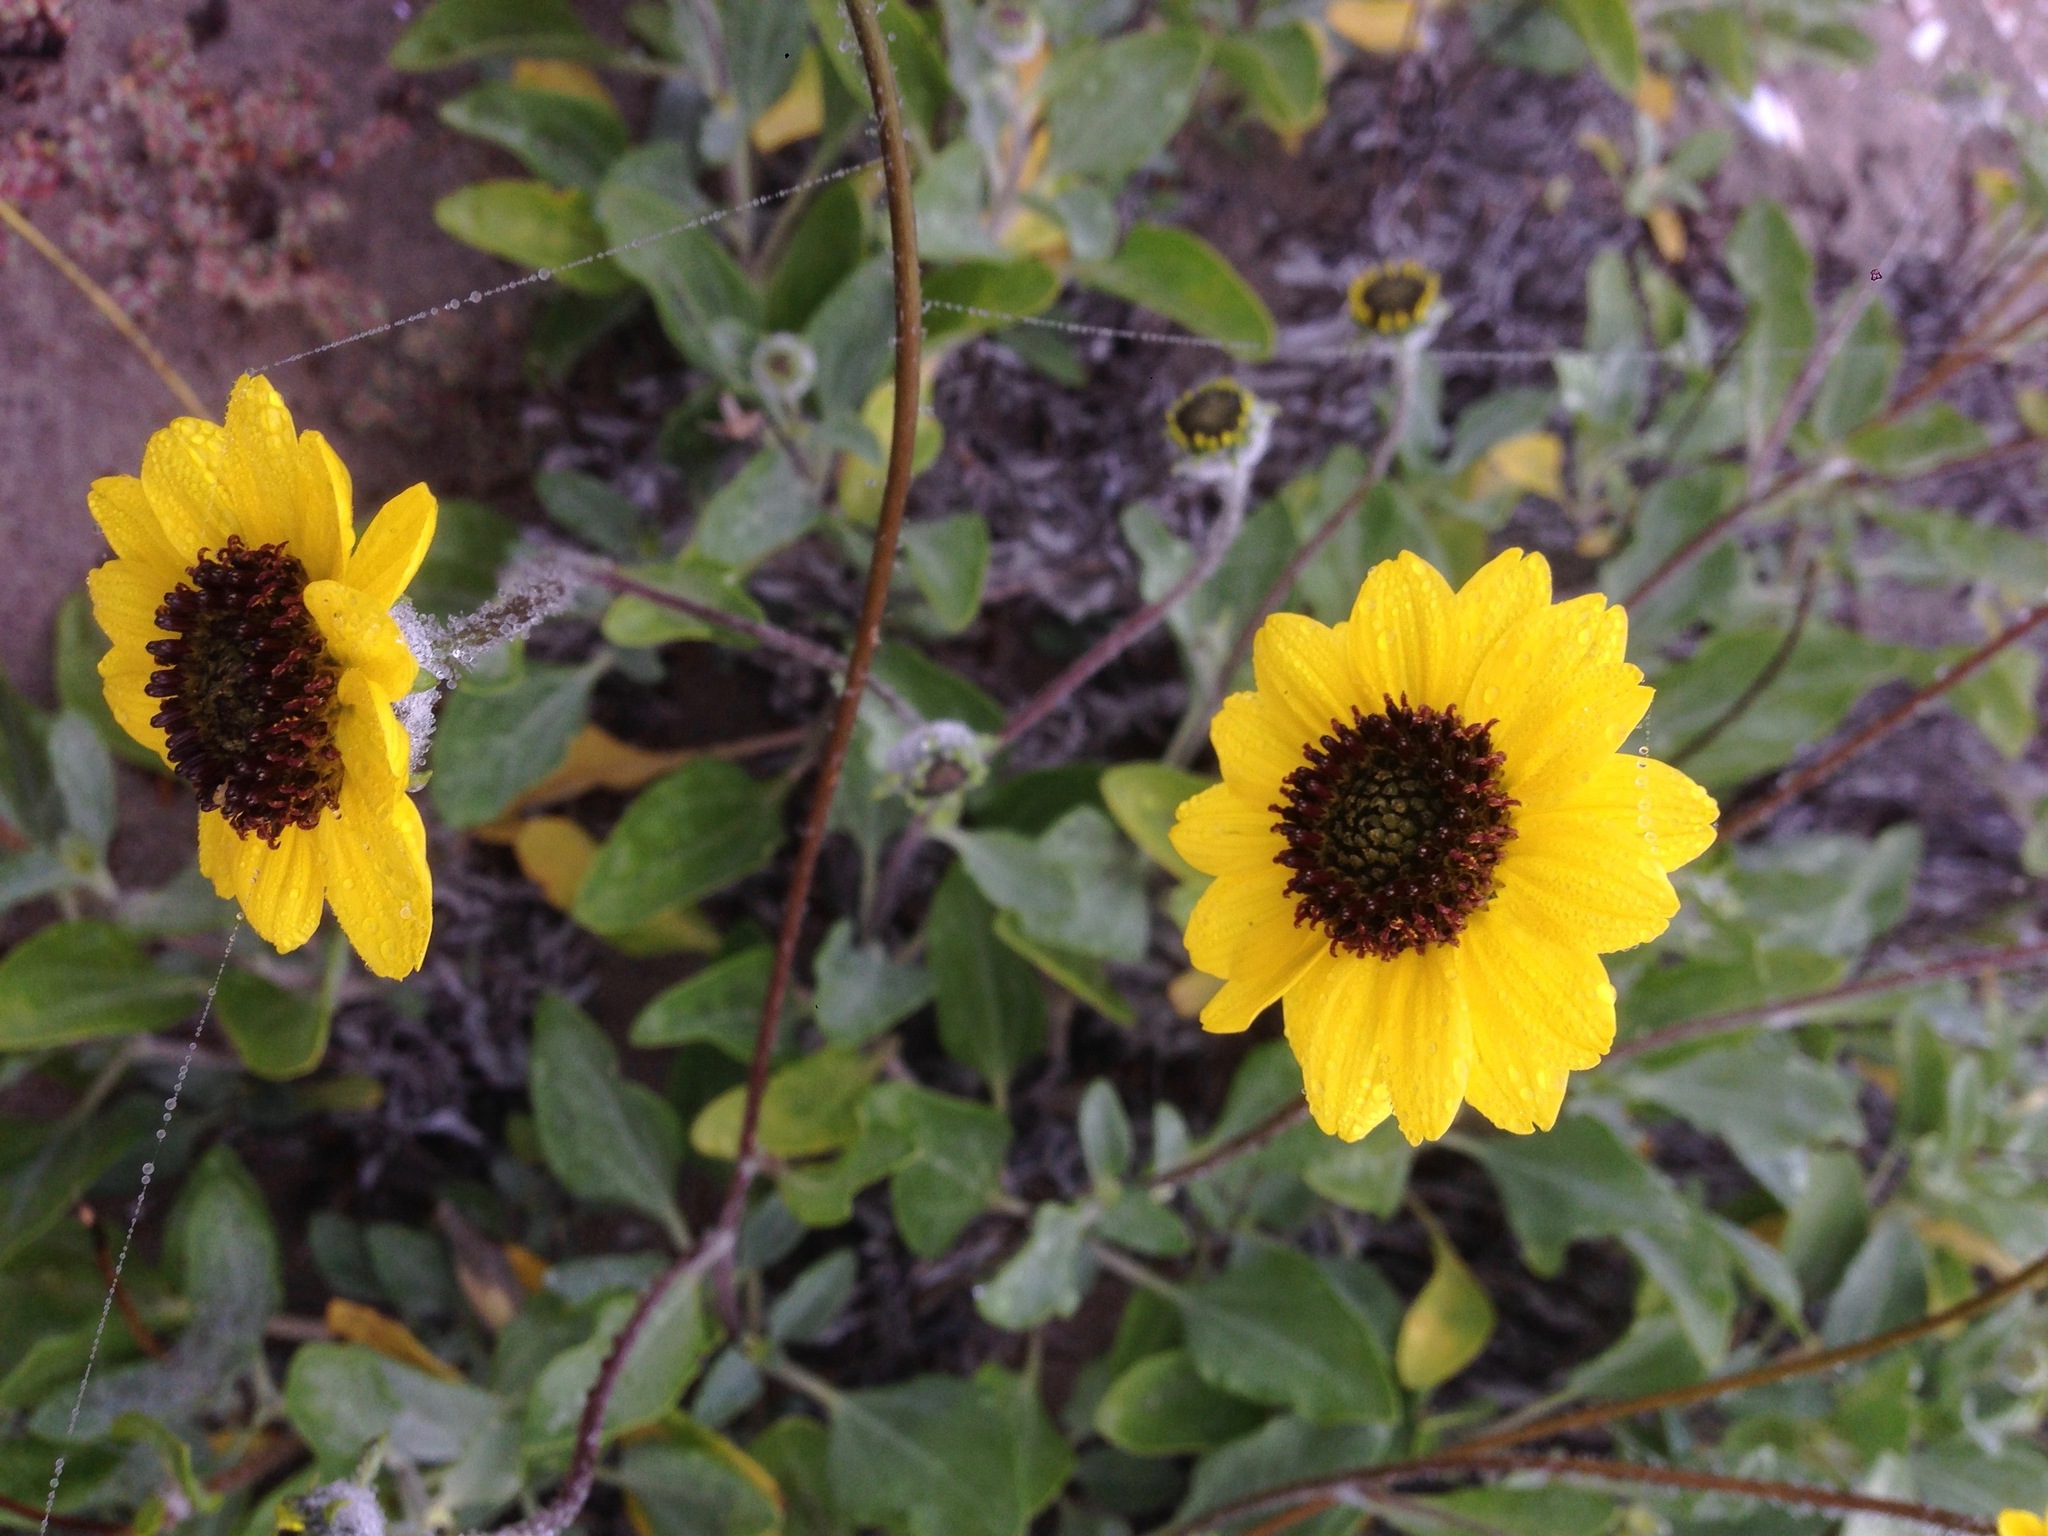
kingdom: Plantae
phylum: Tracheophyta
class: Magnoliopsida
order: Asterales
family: Asteraceae
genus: Encelia
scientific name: Encelia californica
